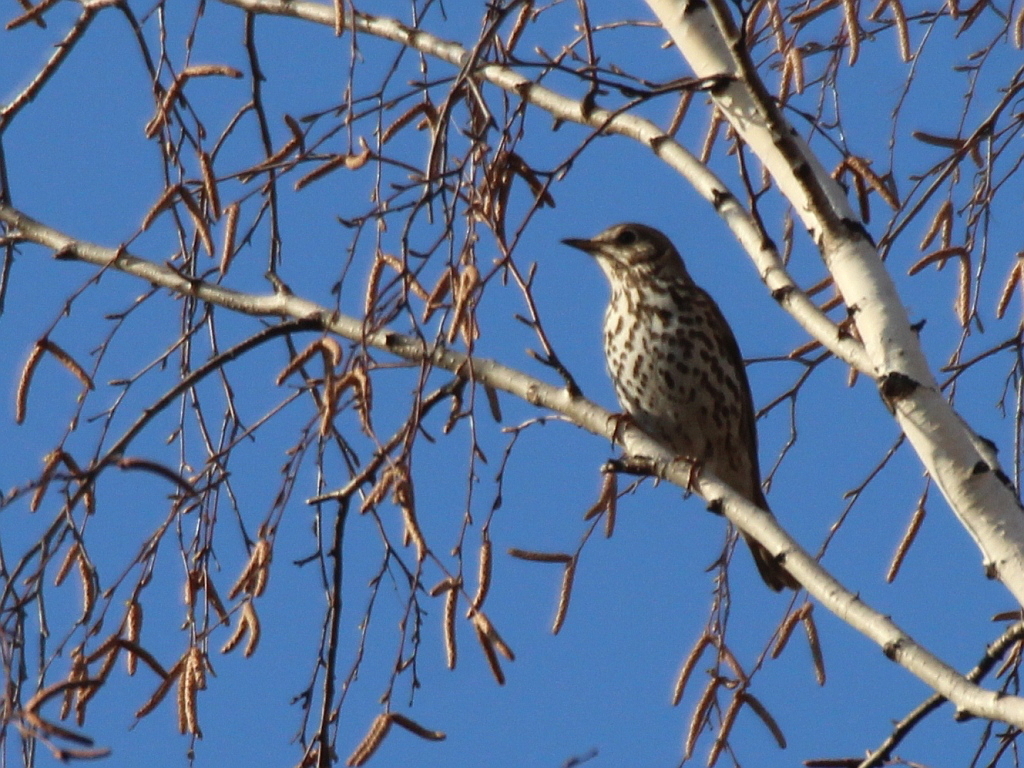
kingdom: Animalia
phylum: Chordata
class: Aves
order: Passeriformes
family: Turdidae
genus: Turdus
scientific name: Turdus philomelos
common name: Song thrush
